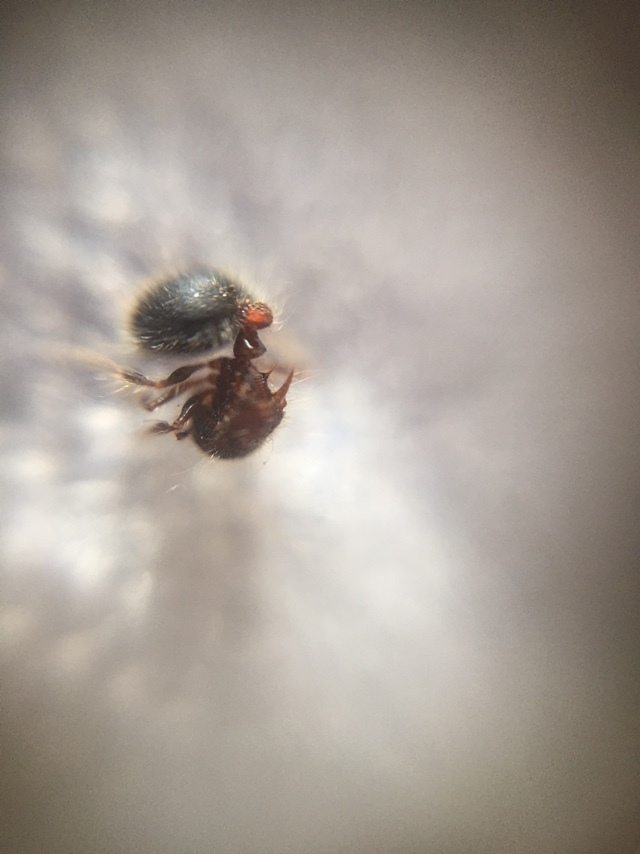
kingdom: Animalia
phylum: Arthropoda
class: Insecta
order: Hymenoptera
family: Formicidae
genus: Meranoplus
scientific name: Meranoplus bicolor
